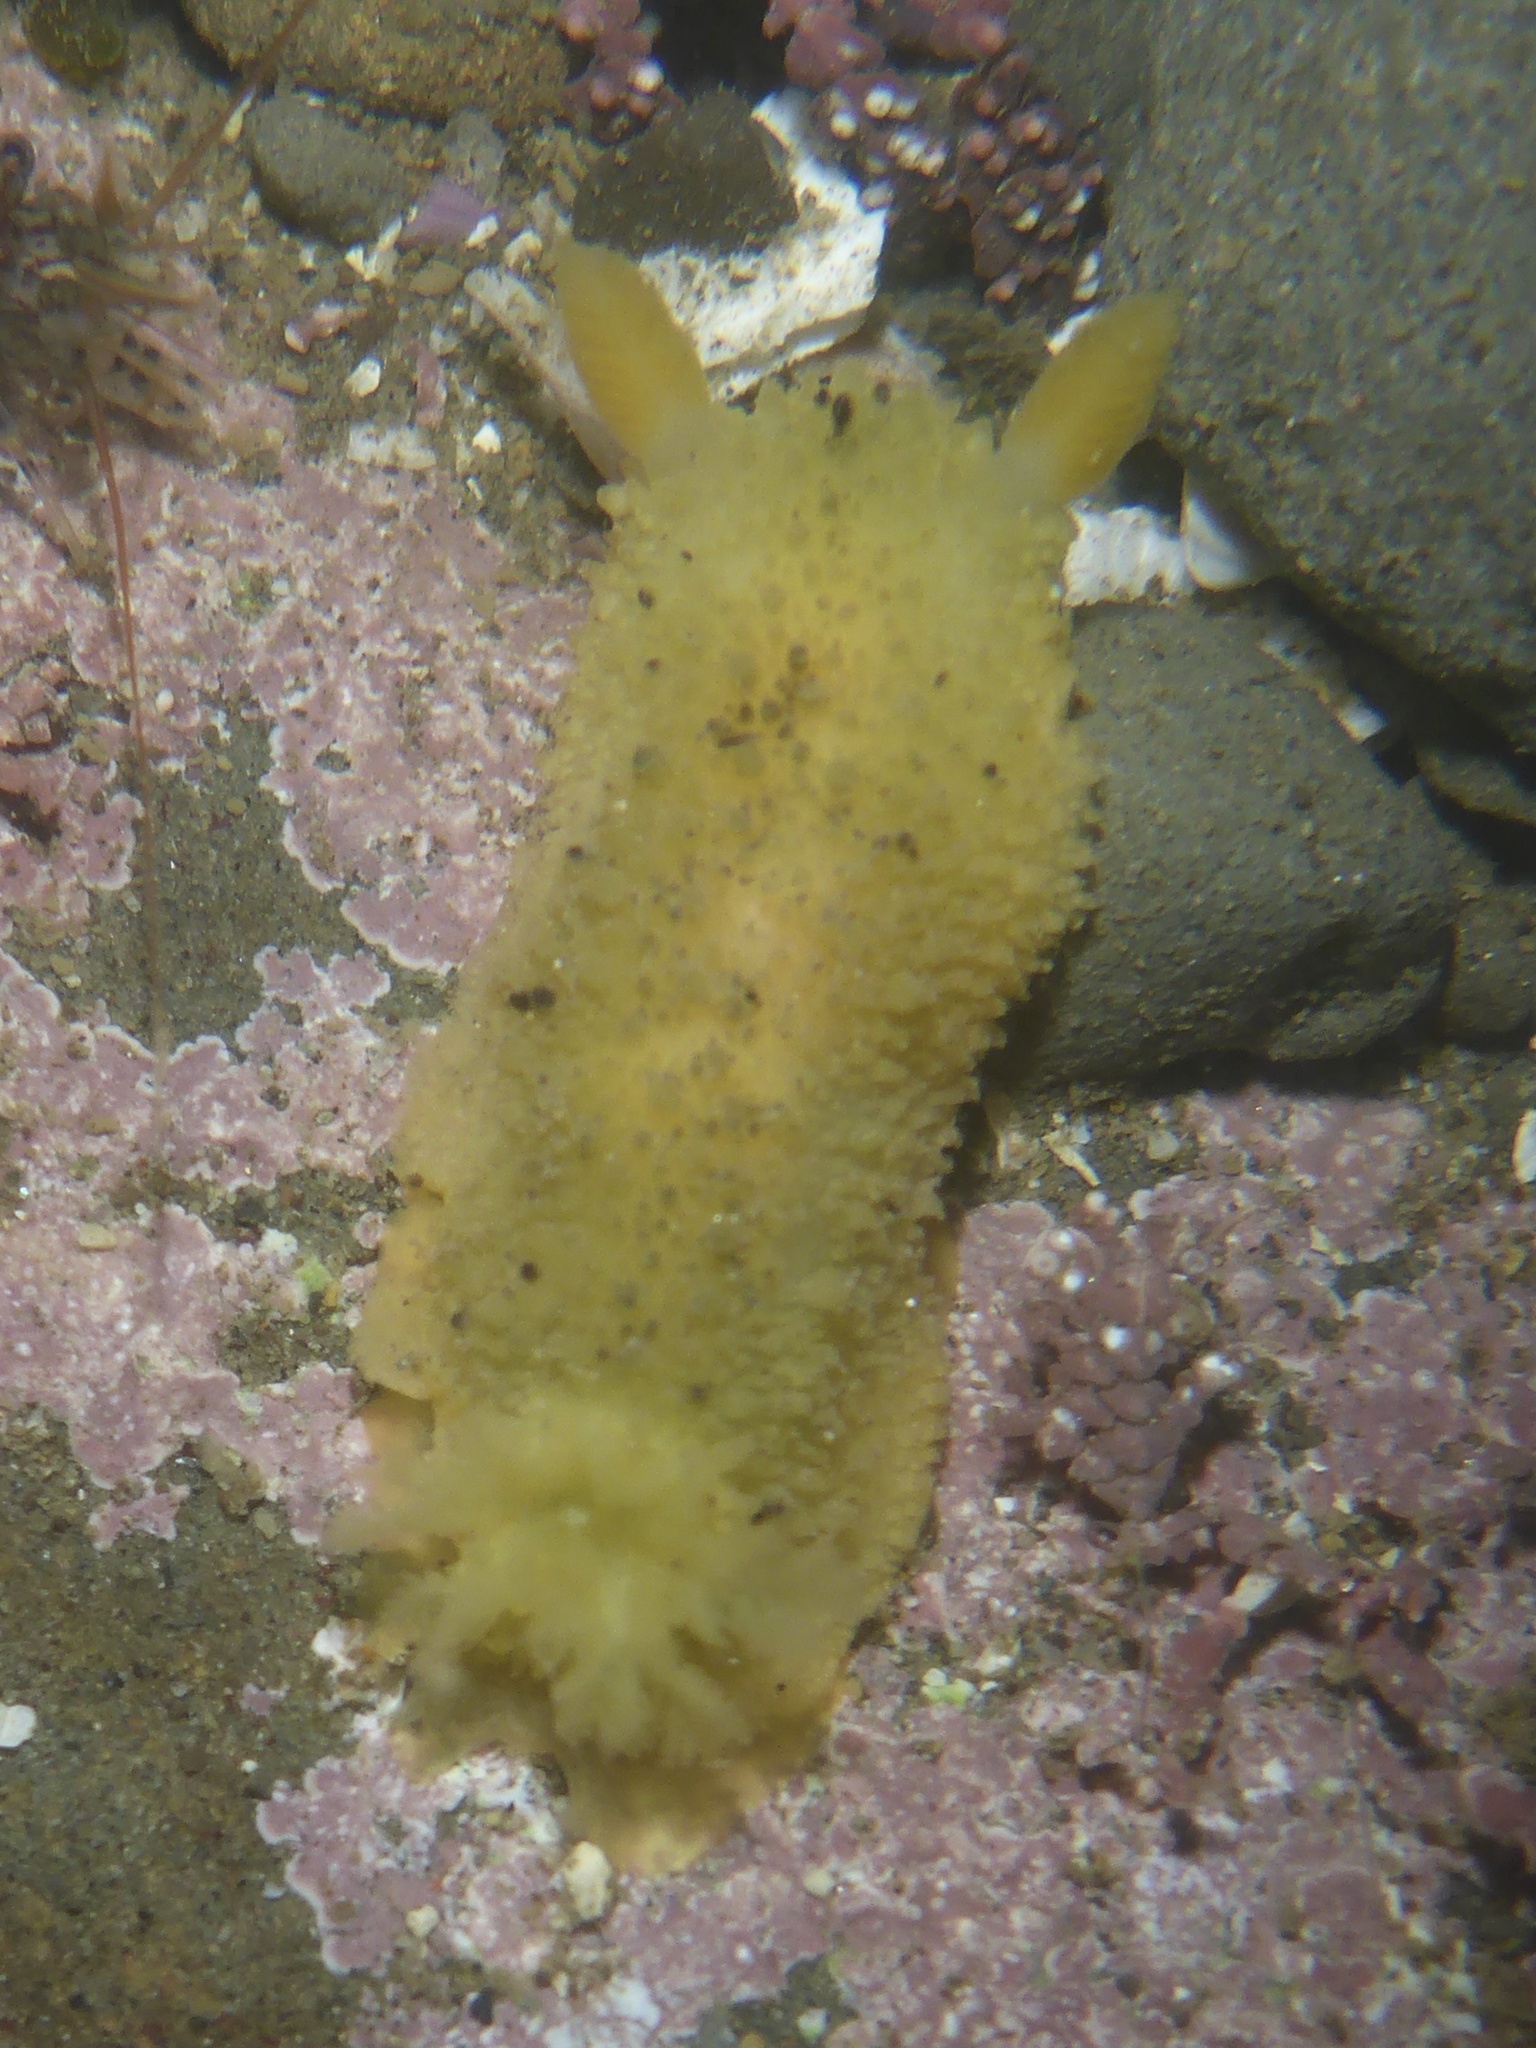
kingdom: Animalia
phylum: Mollusca
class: Gastropoda
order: Nudibranchia
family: Dorididae
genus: Doris
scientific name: Doris montereyensis
